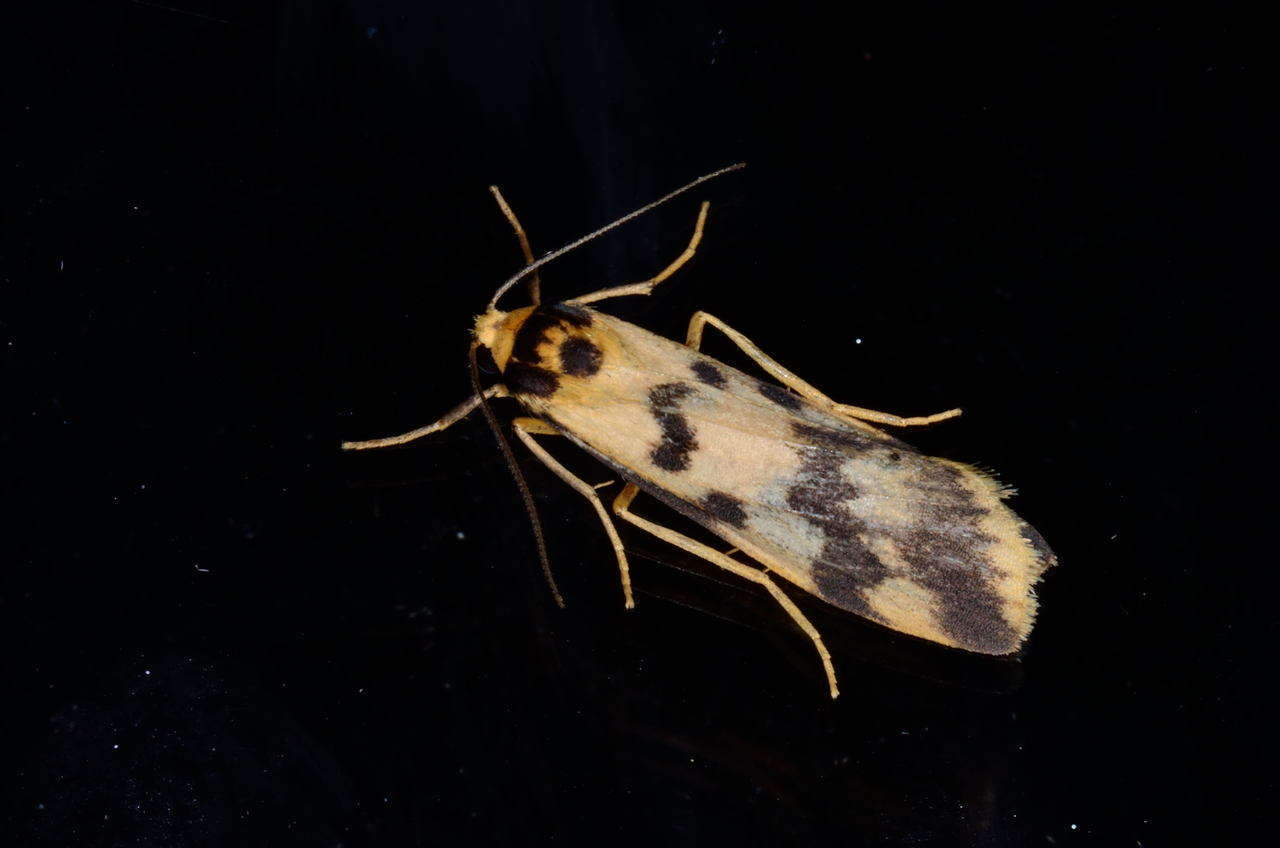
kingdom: Animalia
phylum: Arthropoda
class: Insecta
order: Lepidoptera
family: Erebidae
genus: Tigrioides
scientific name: Tigrioides alterna
